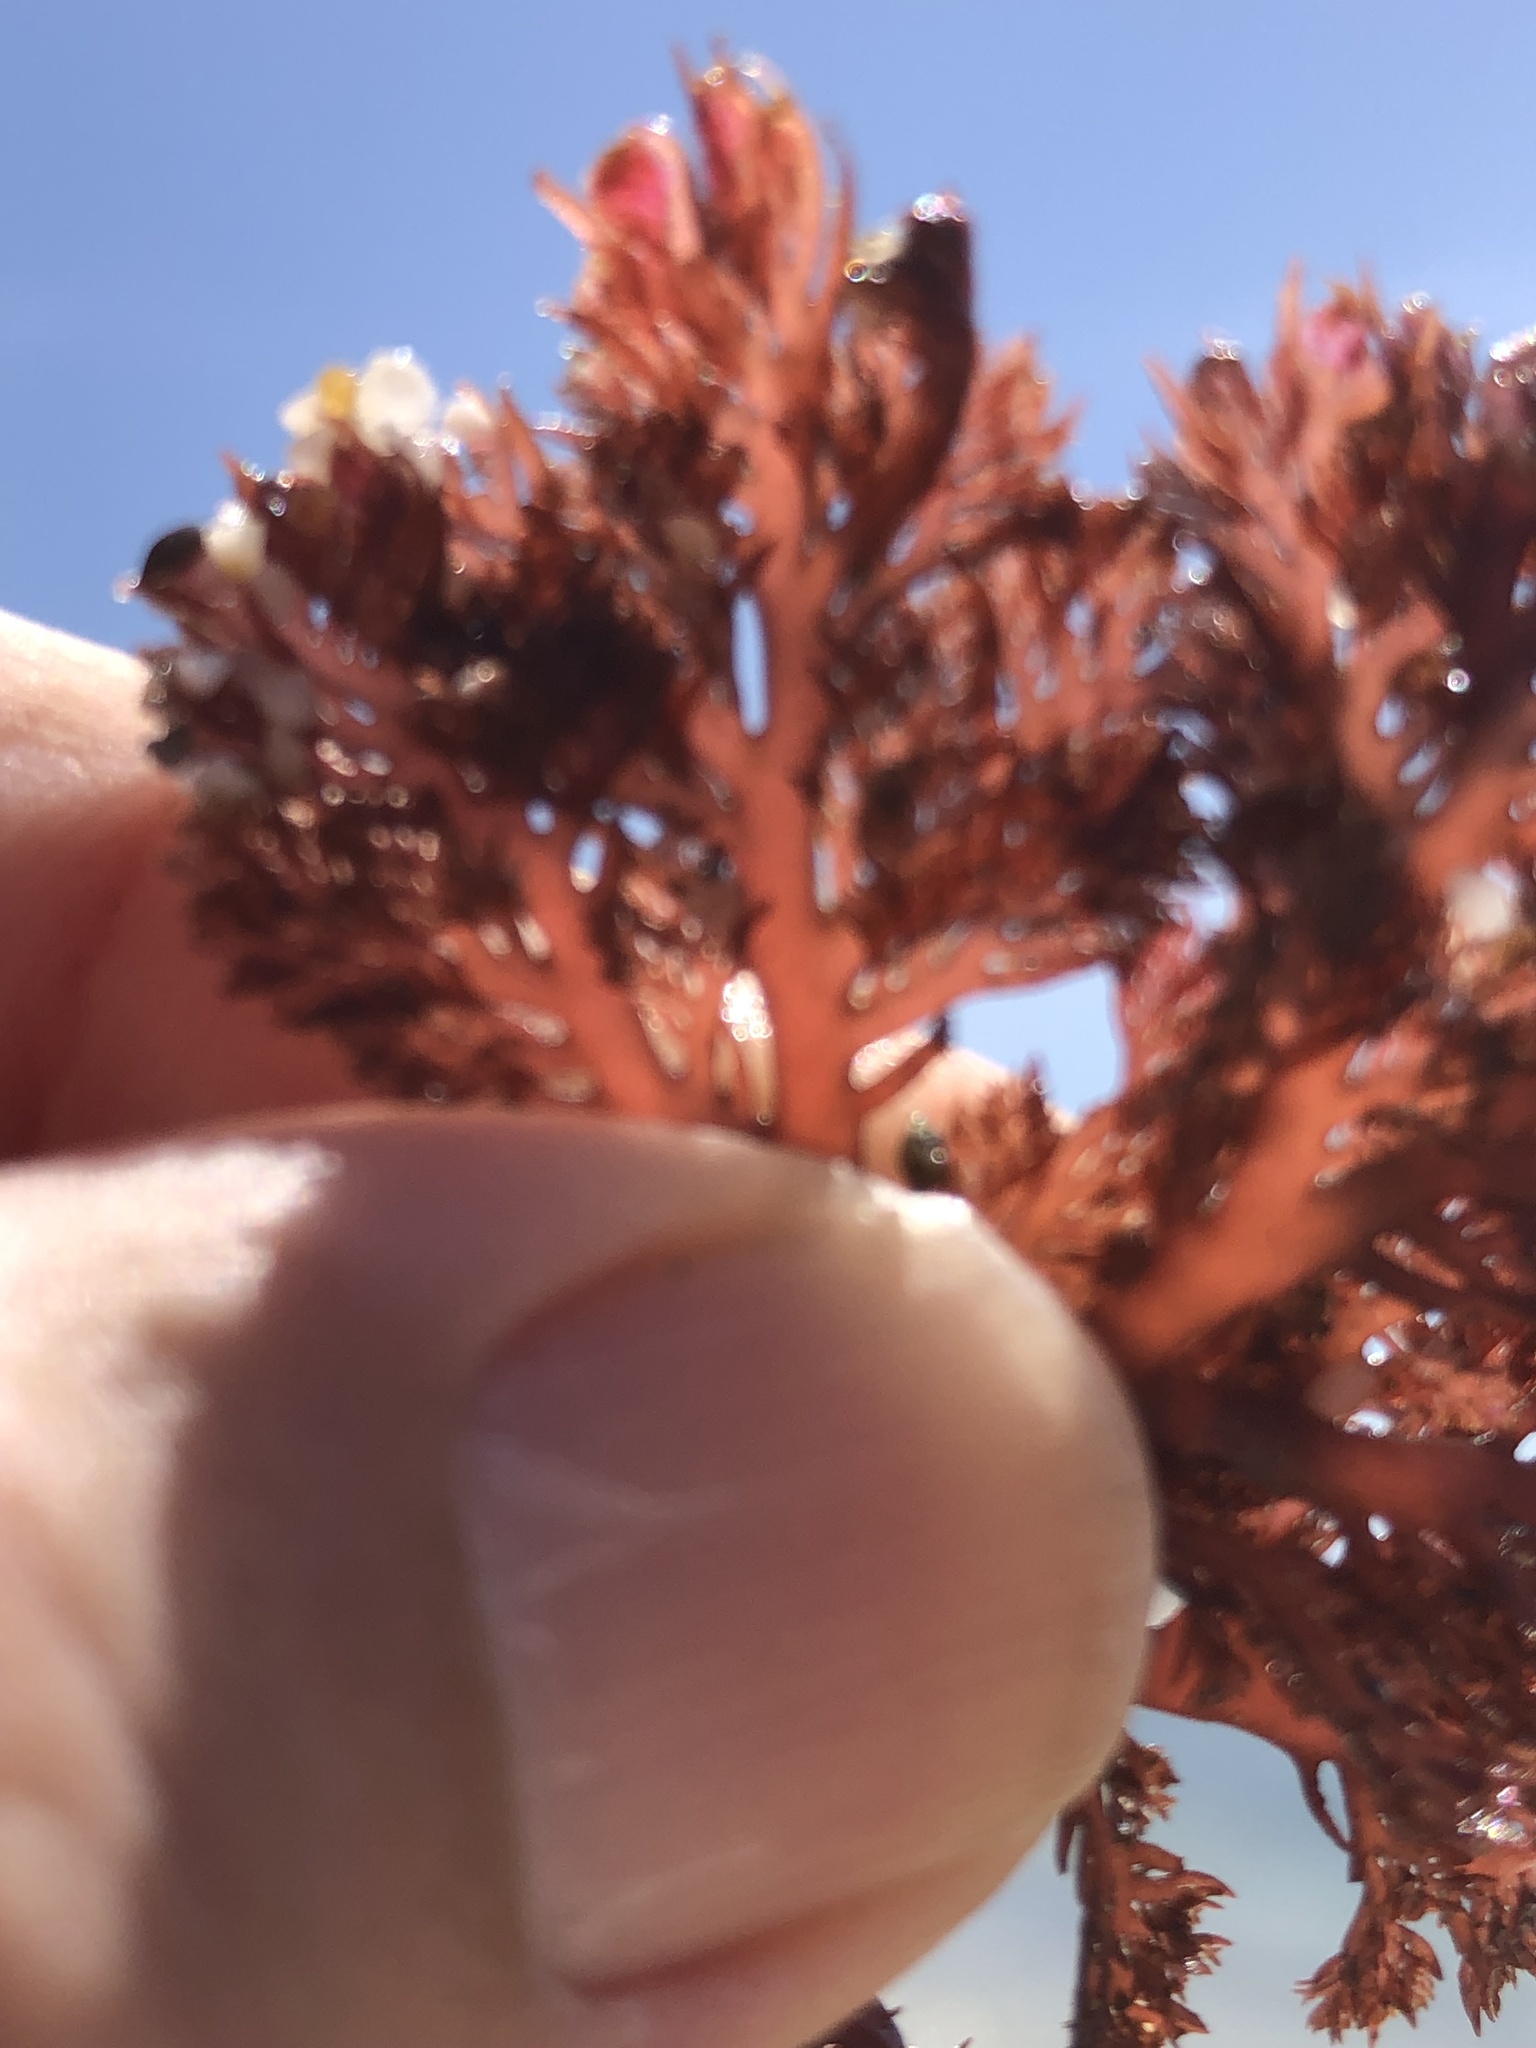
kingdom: Plantae
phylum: Rhodophyta
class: Florideophyceae
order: Plocamiales
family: Plocamiaceae
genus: Plocamium
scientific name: Plocamium cartilagineum
